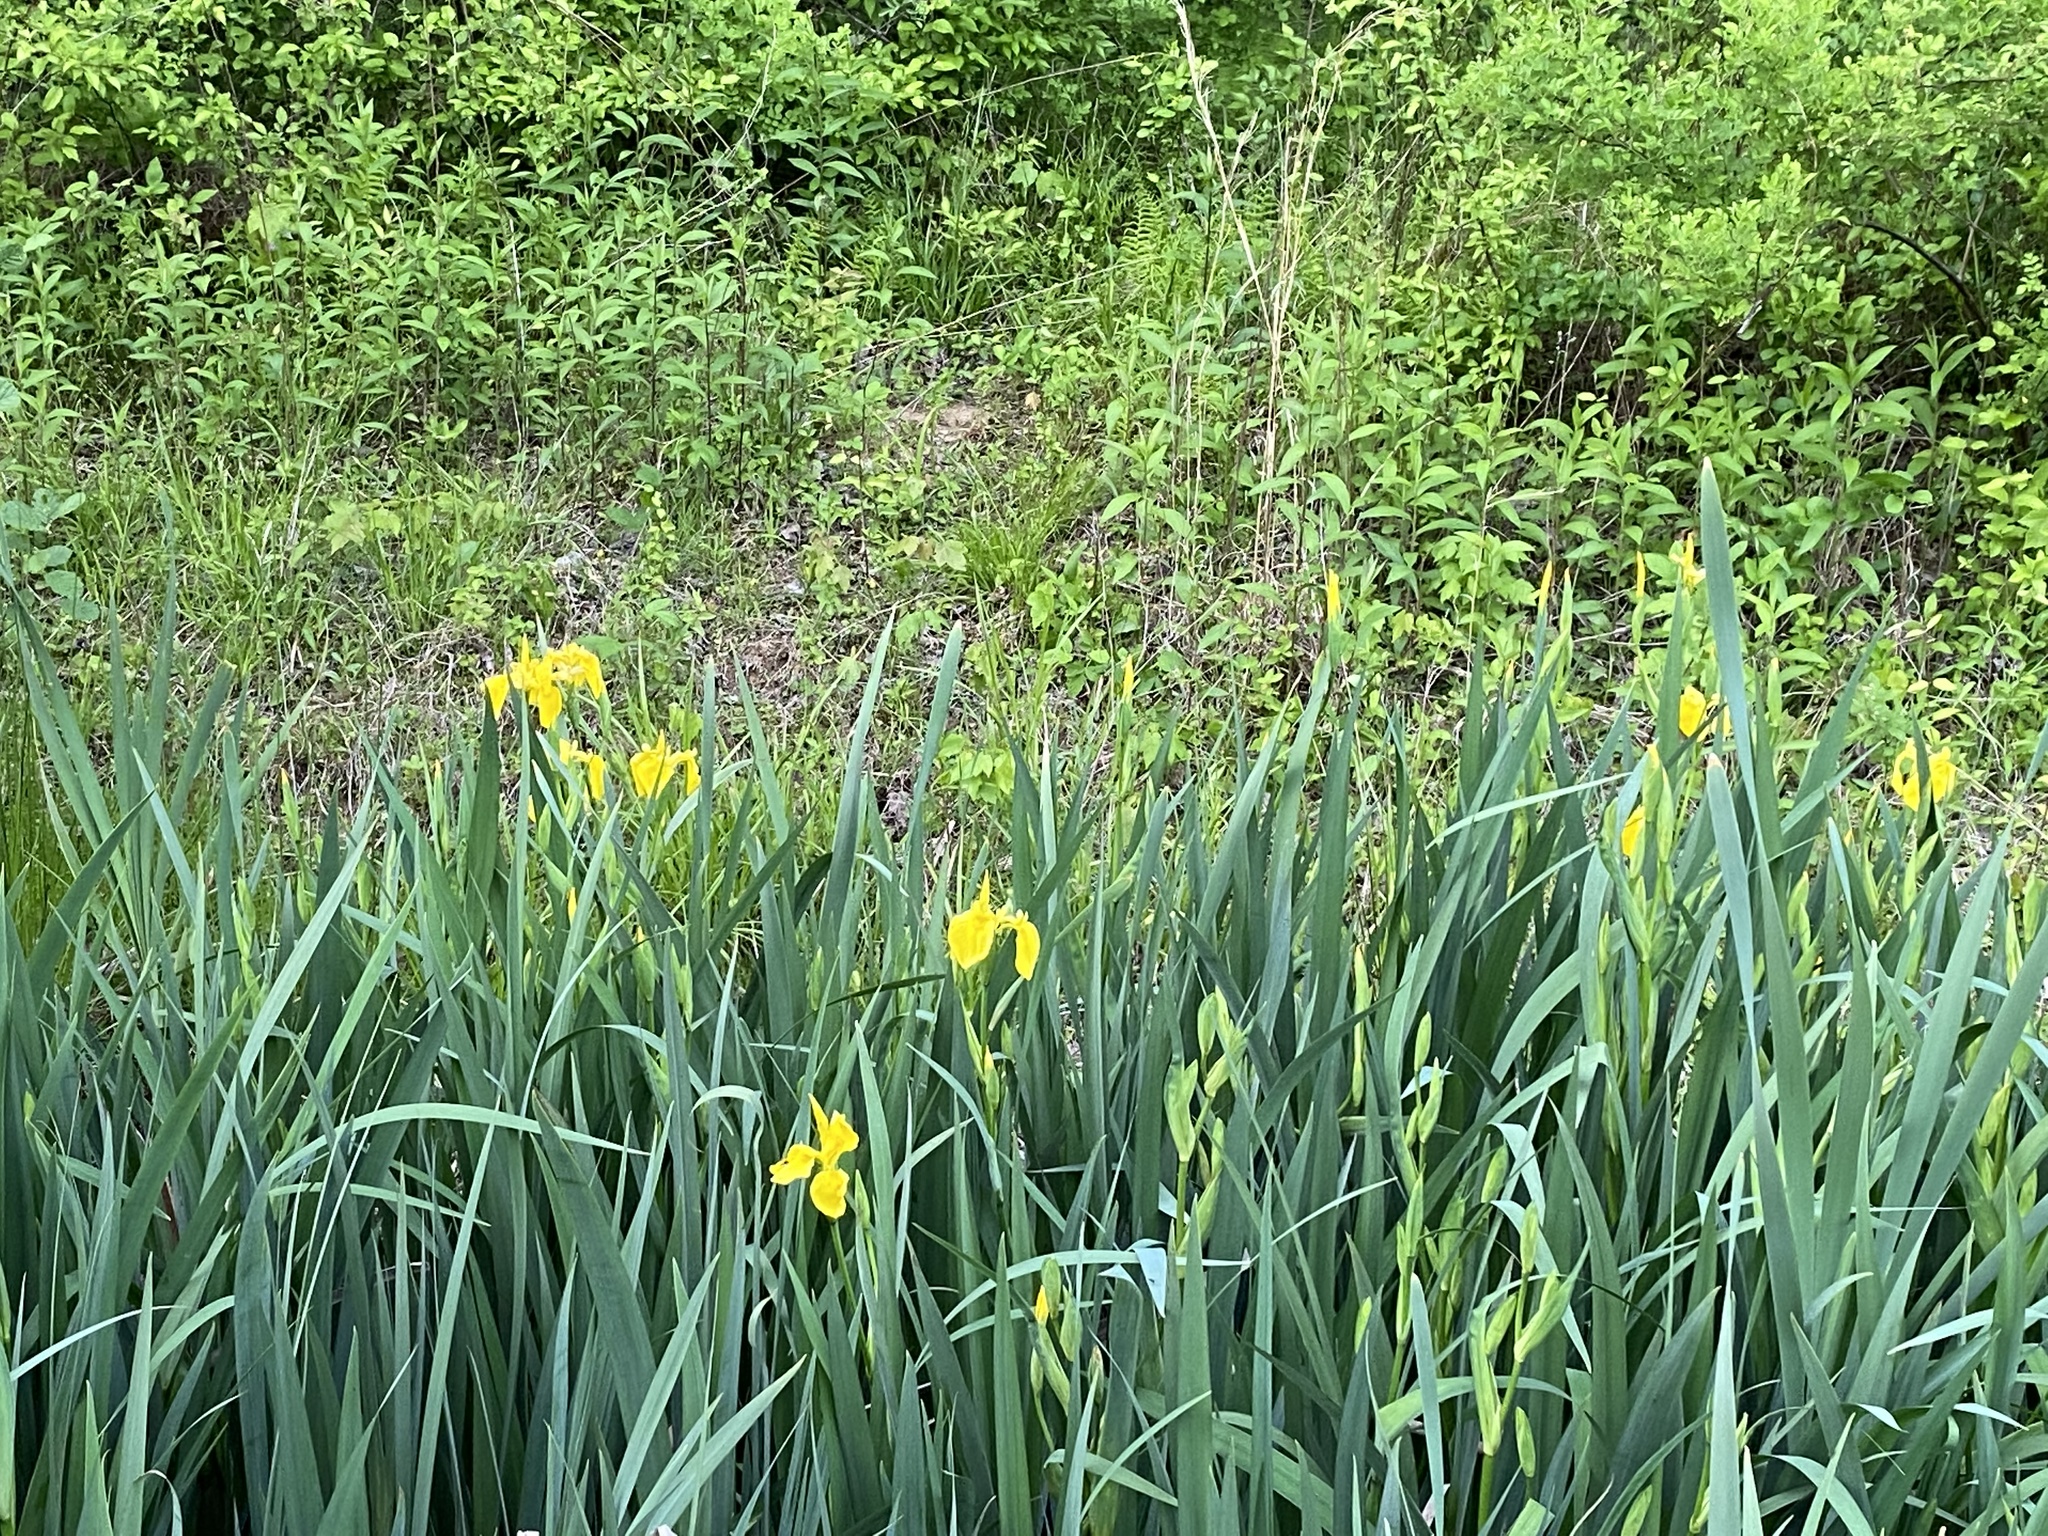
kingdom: Plantae
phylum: Tracheophyta
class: Liliopsida
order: Asparagales
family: Iridaceae
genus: Iris
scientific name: Iris pseudacorus
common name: Yellow flag
